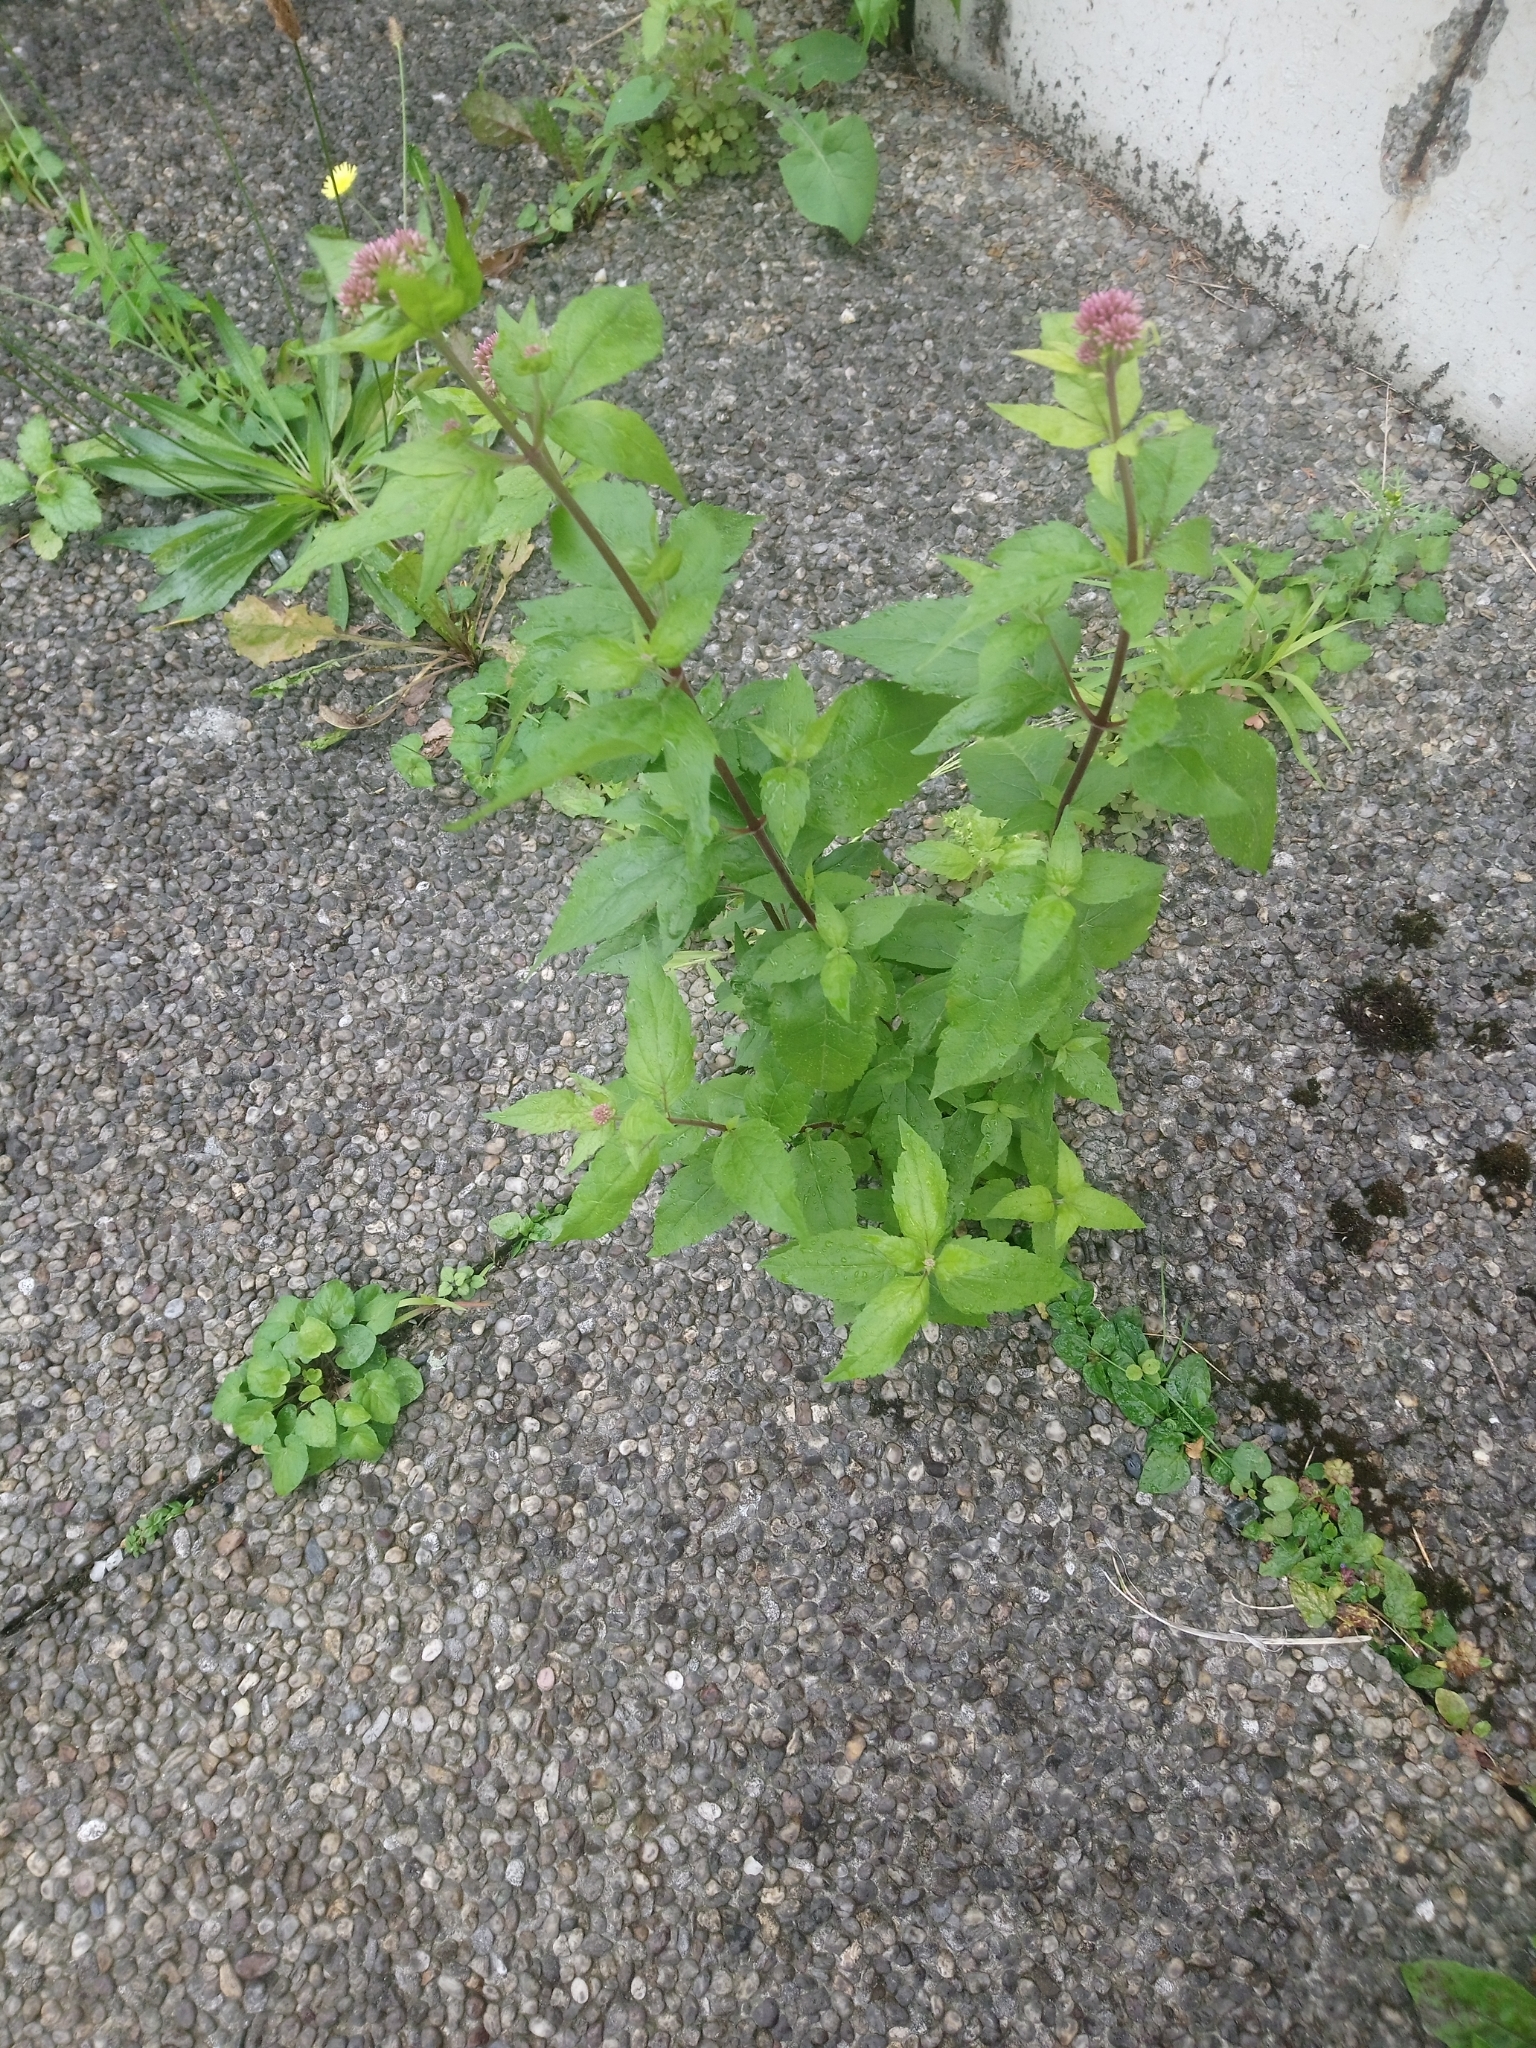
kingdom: Plantae
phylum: Tracheophyta
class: Magnoliopsida
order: Asterales
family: Asteraceae
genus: Eupatorium
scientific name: Eupatorium cannabinum
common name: Hemp-agrimony
